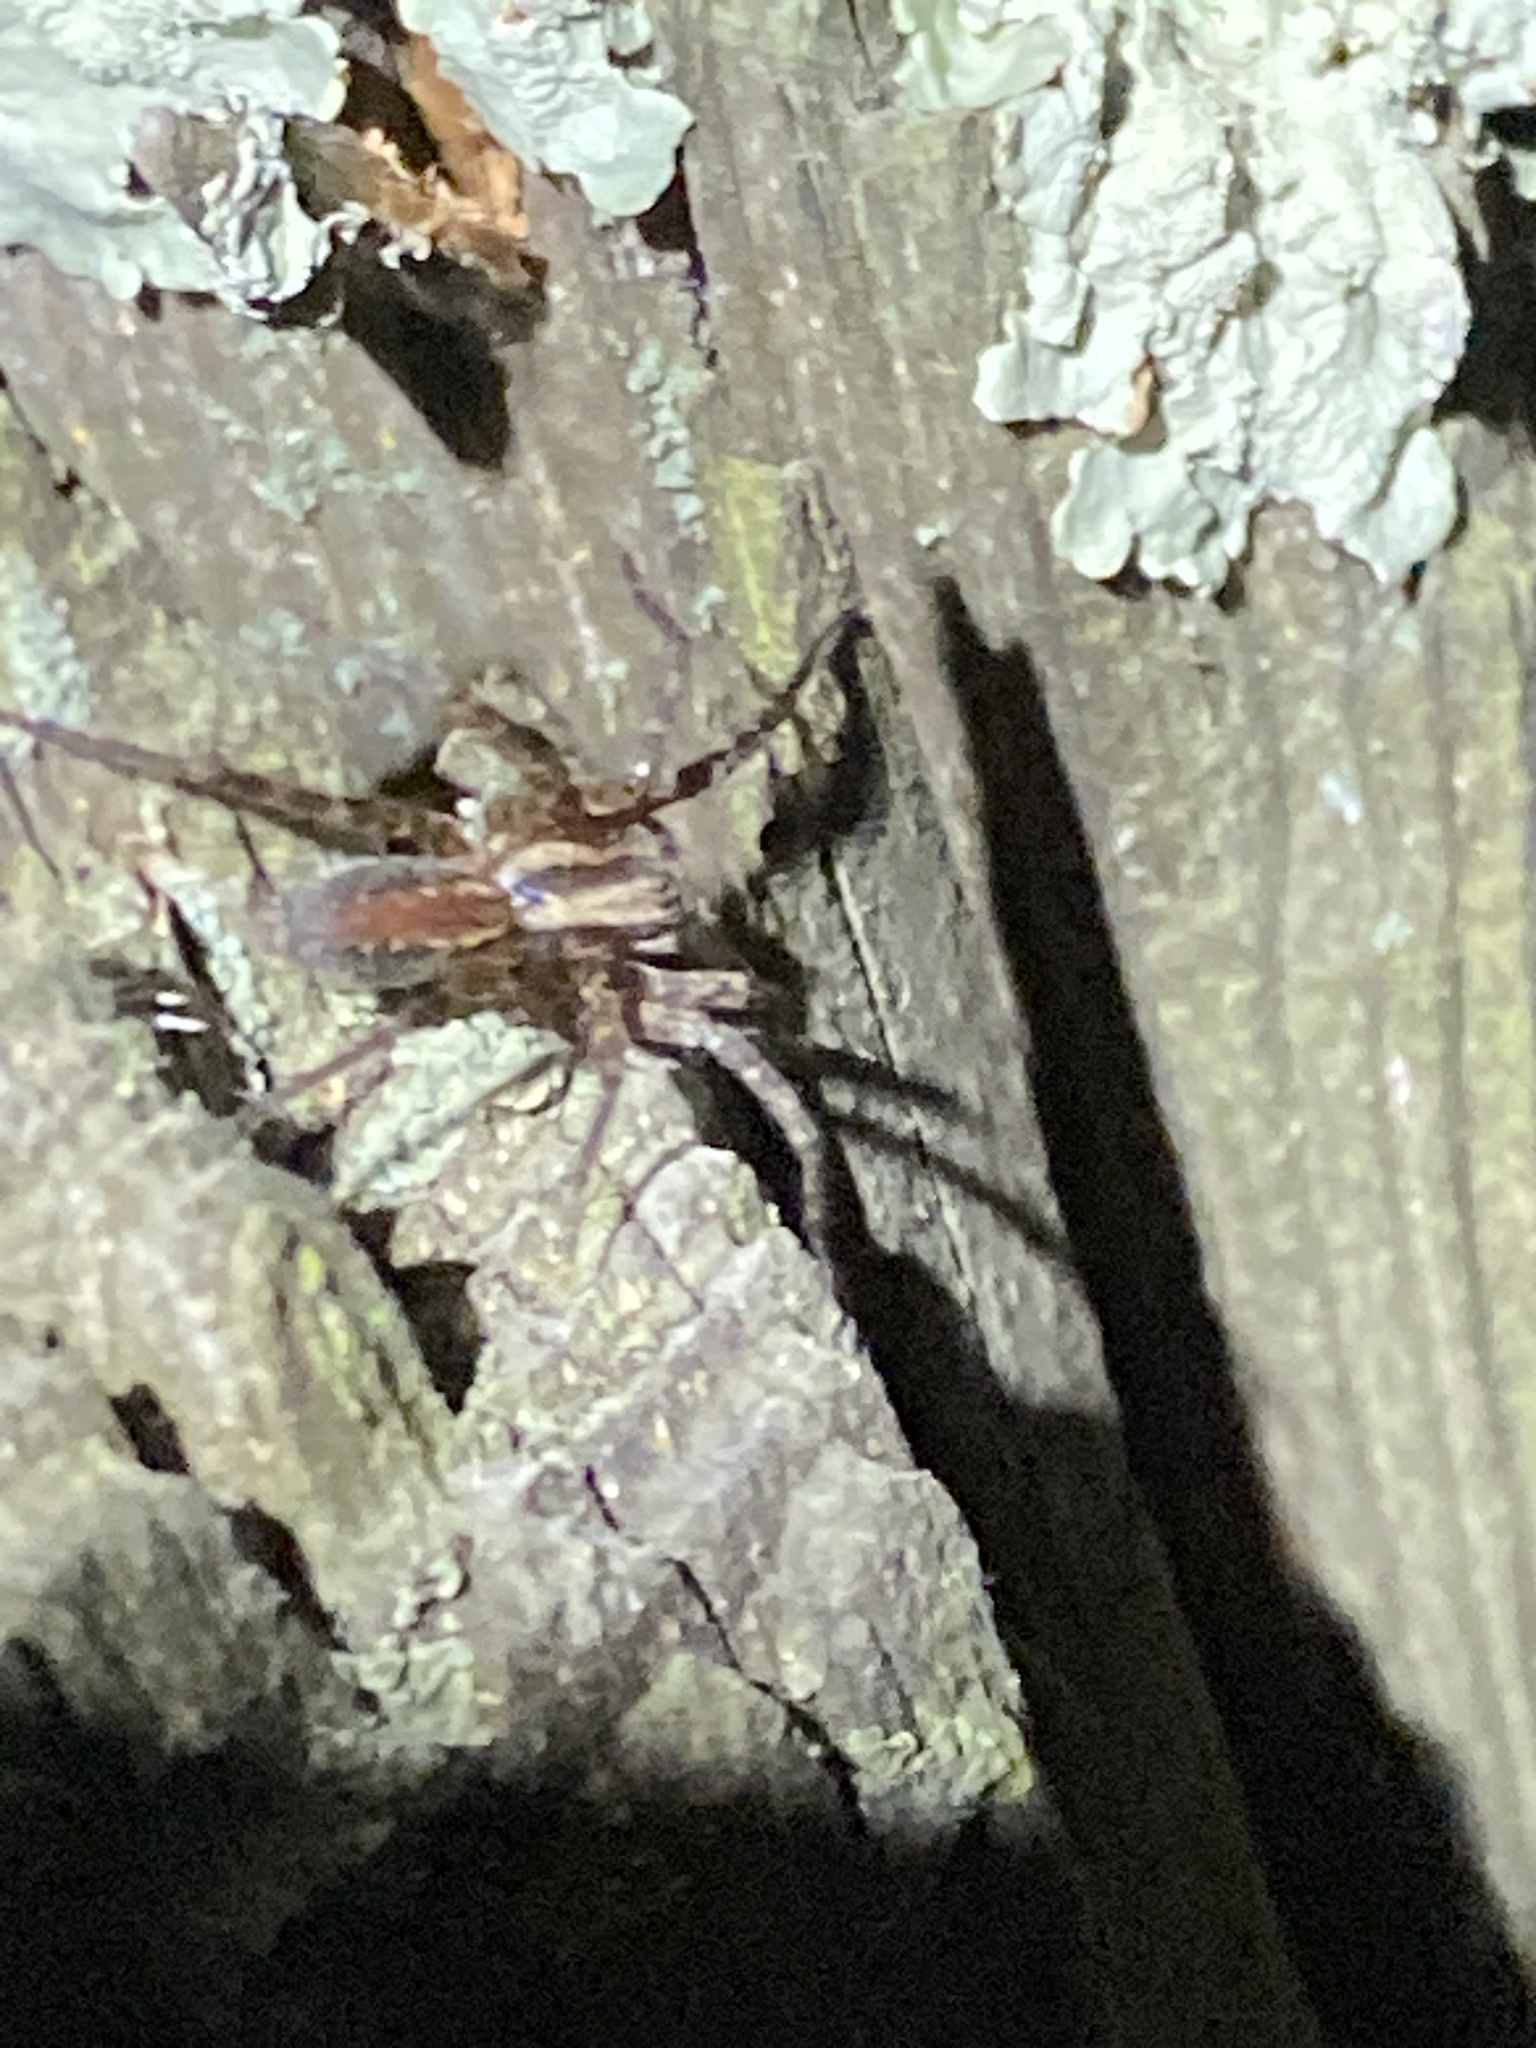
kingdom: Animalia
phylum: Arthropoda
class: Arachnida
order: Araneae
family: Agelenidae
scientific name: Agelenidae
